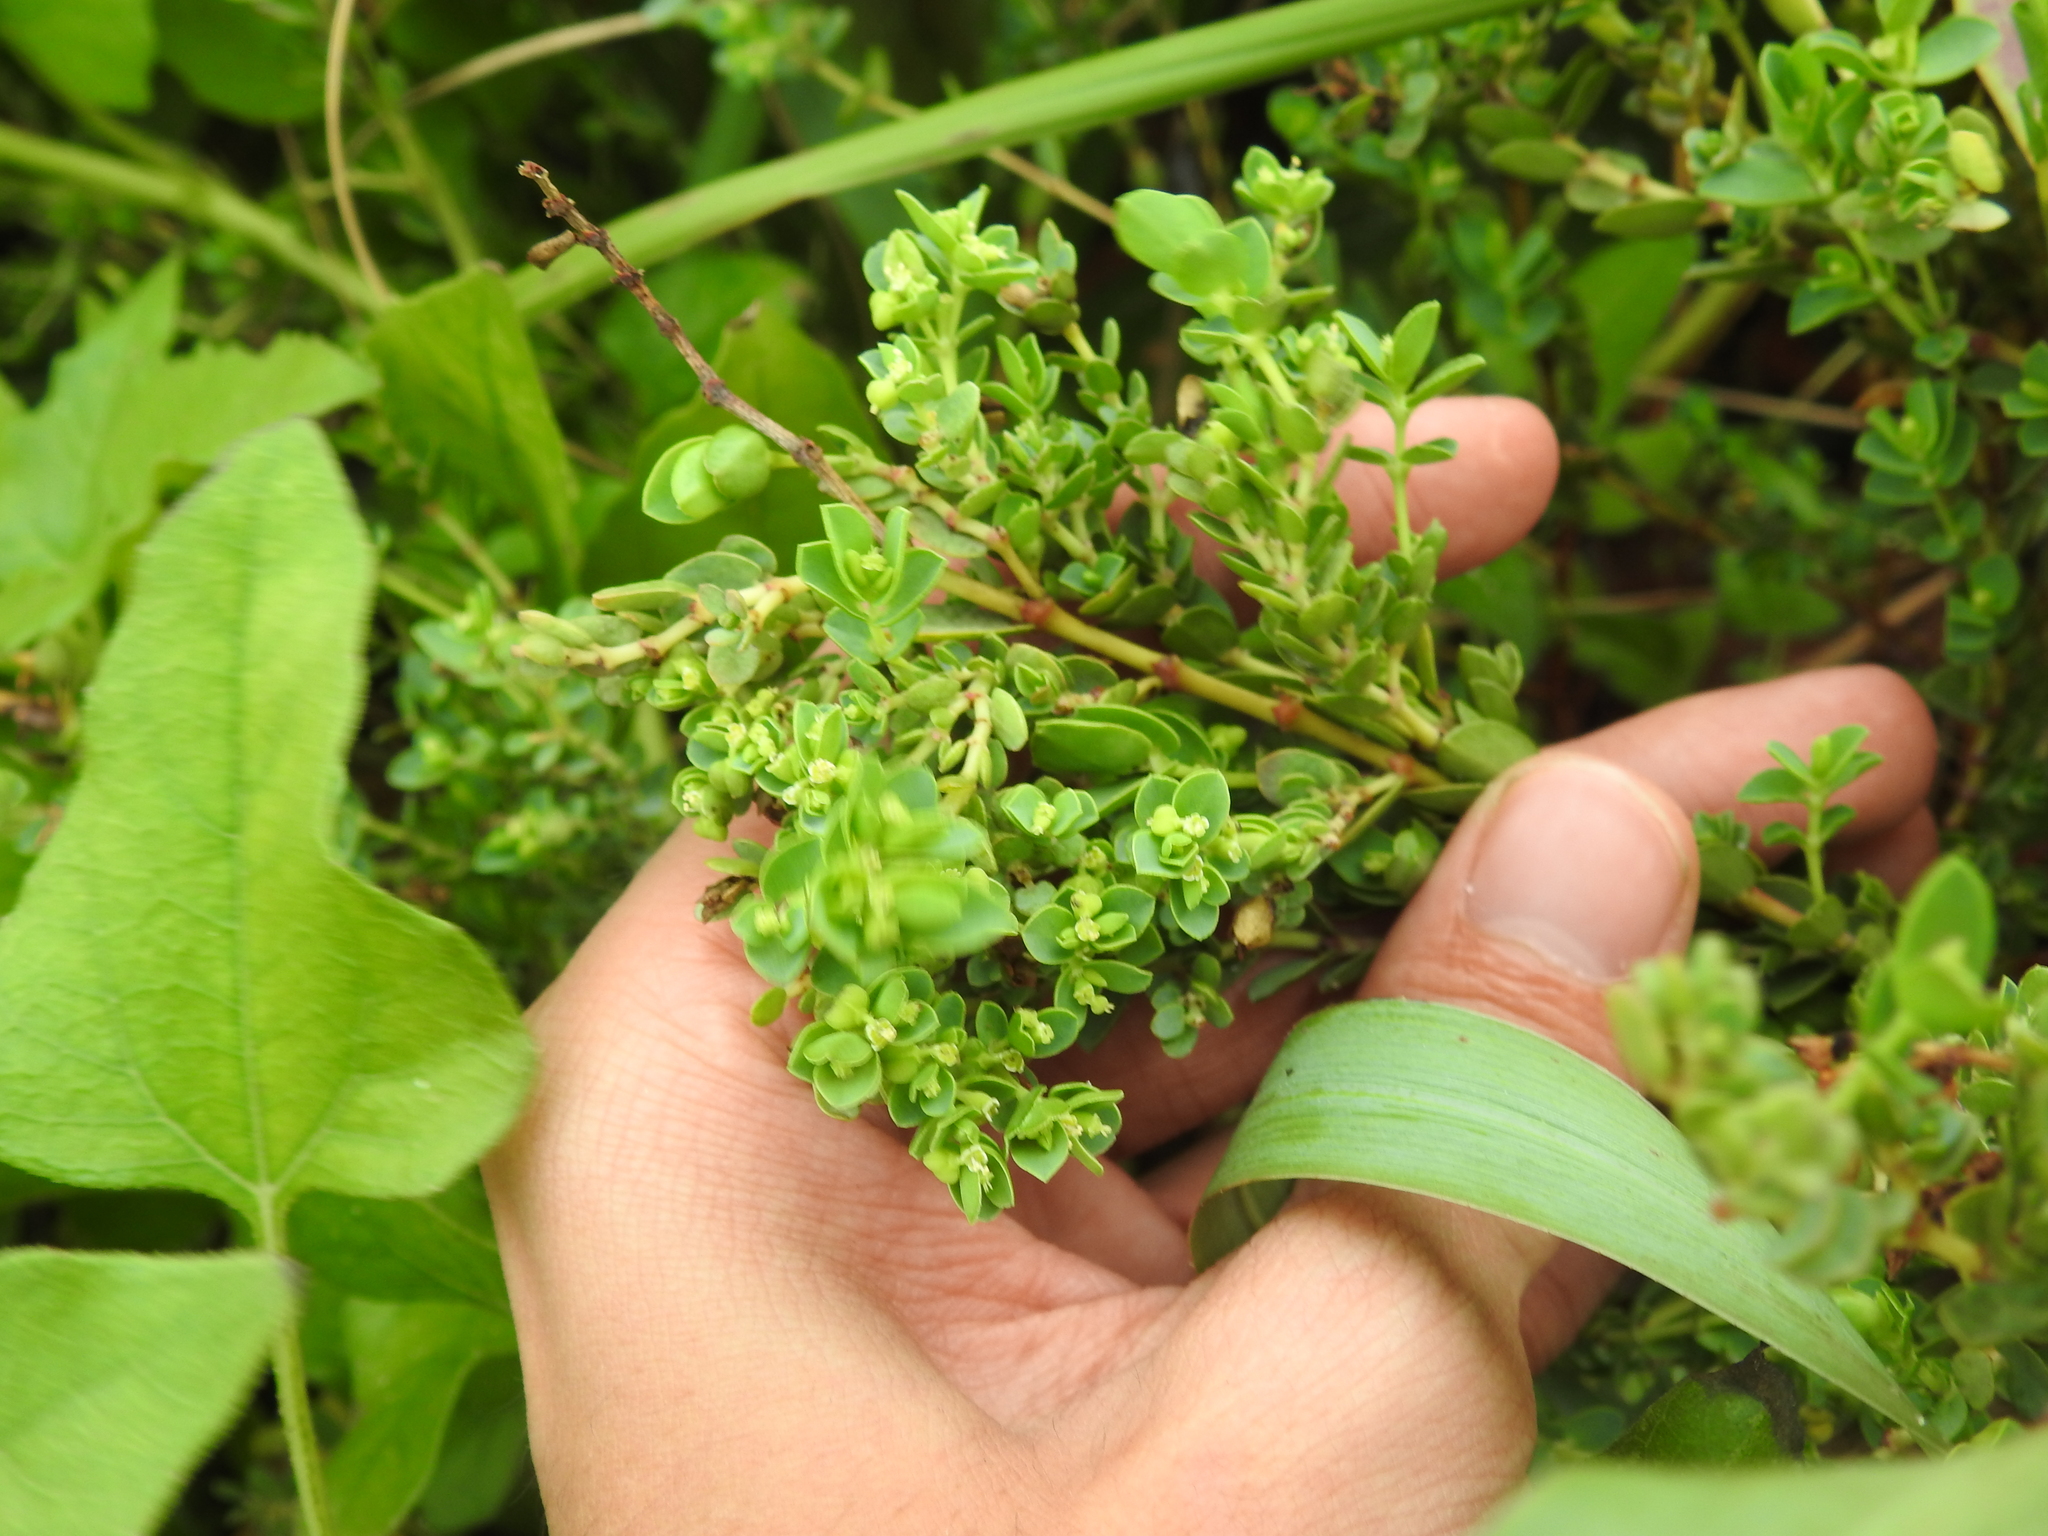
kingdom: Plantae
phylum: Tracheophyta
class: Magnoliopsida
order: Malpighiales
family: Euphorbiaceae
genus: Euphorbia
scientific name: Euphorbia mesembryanthemifolia
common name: Coastal beach sandmat
